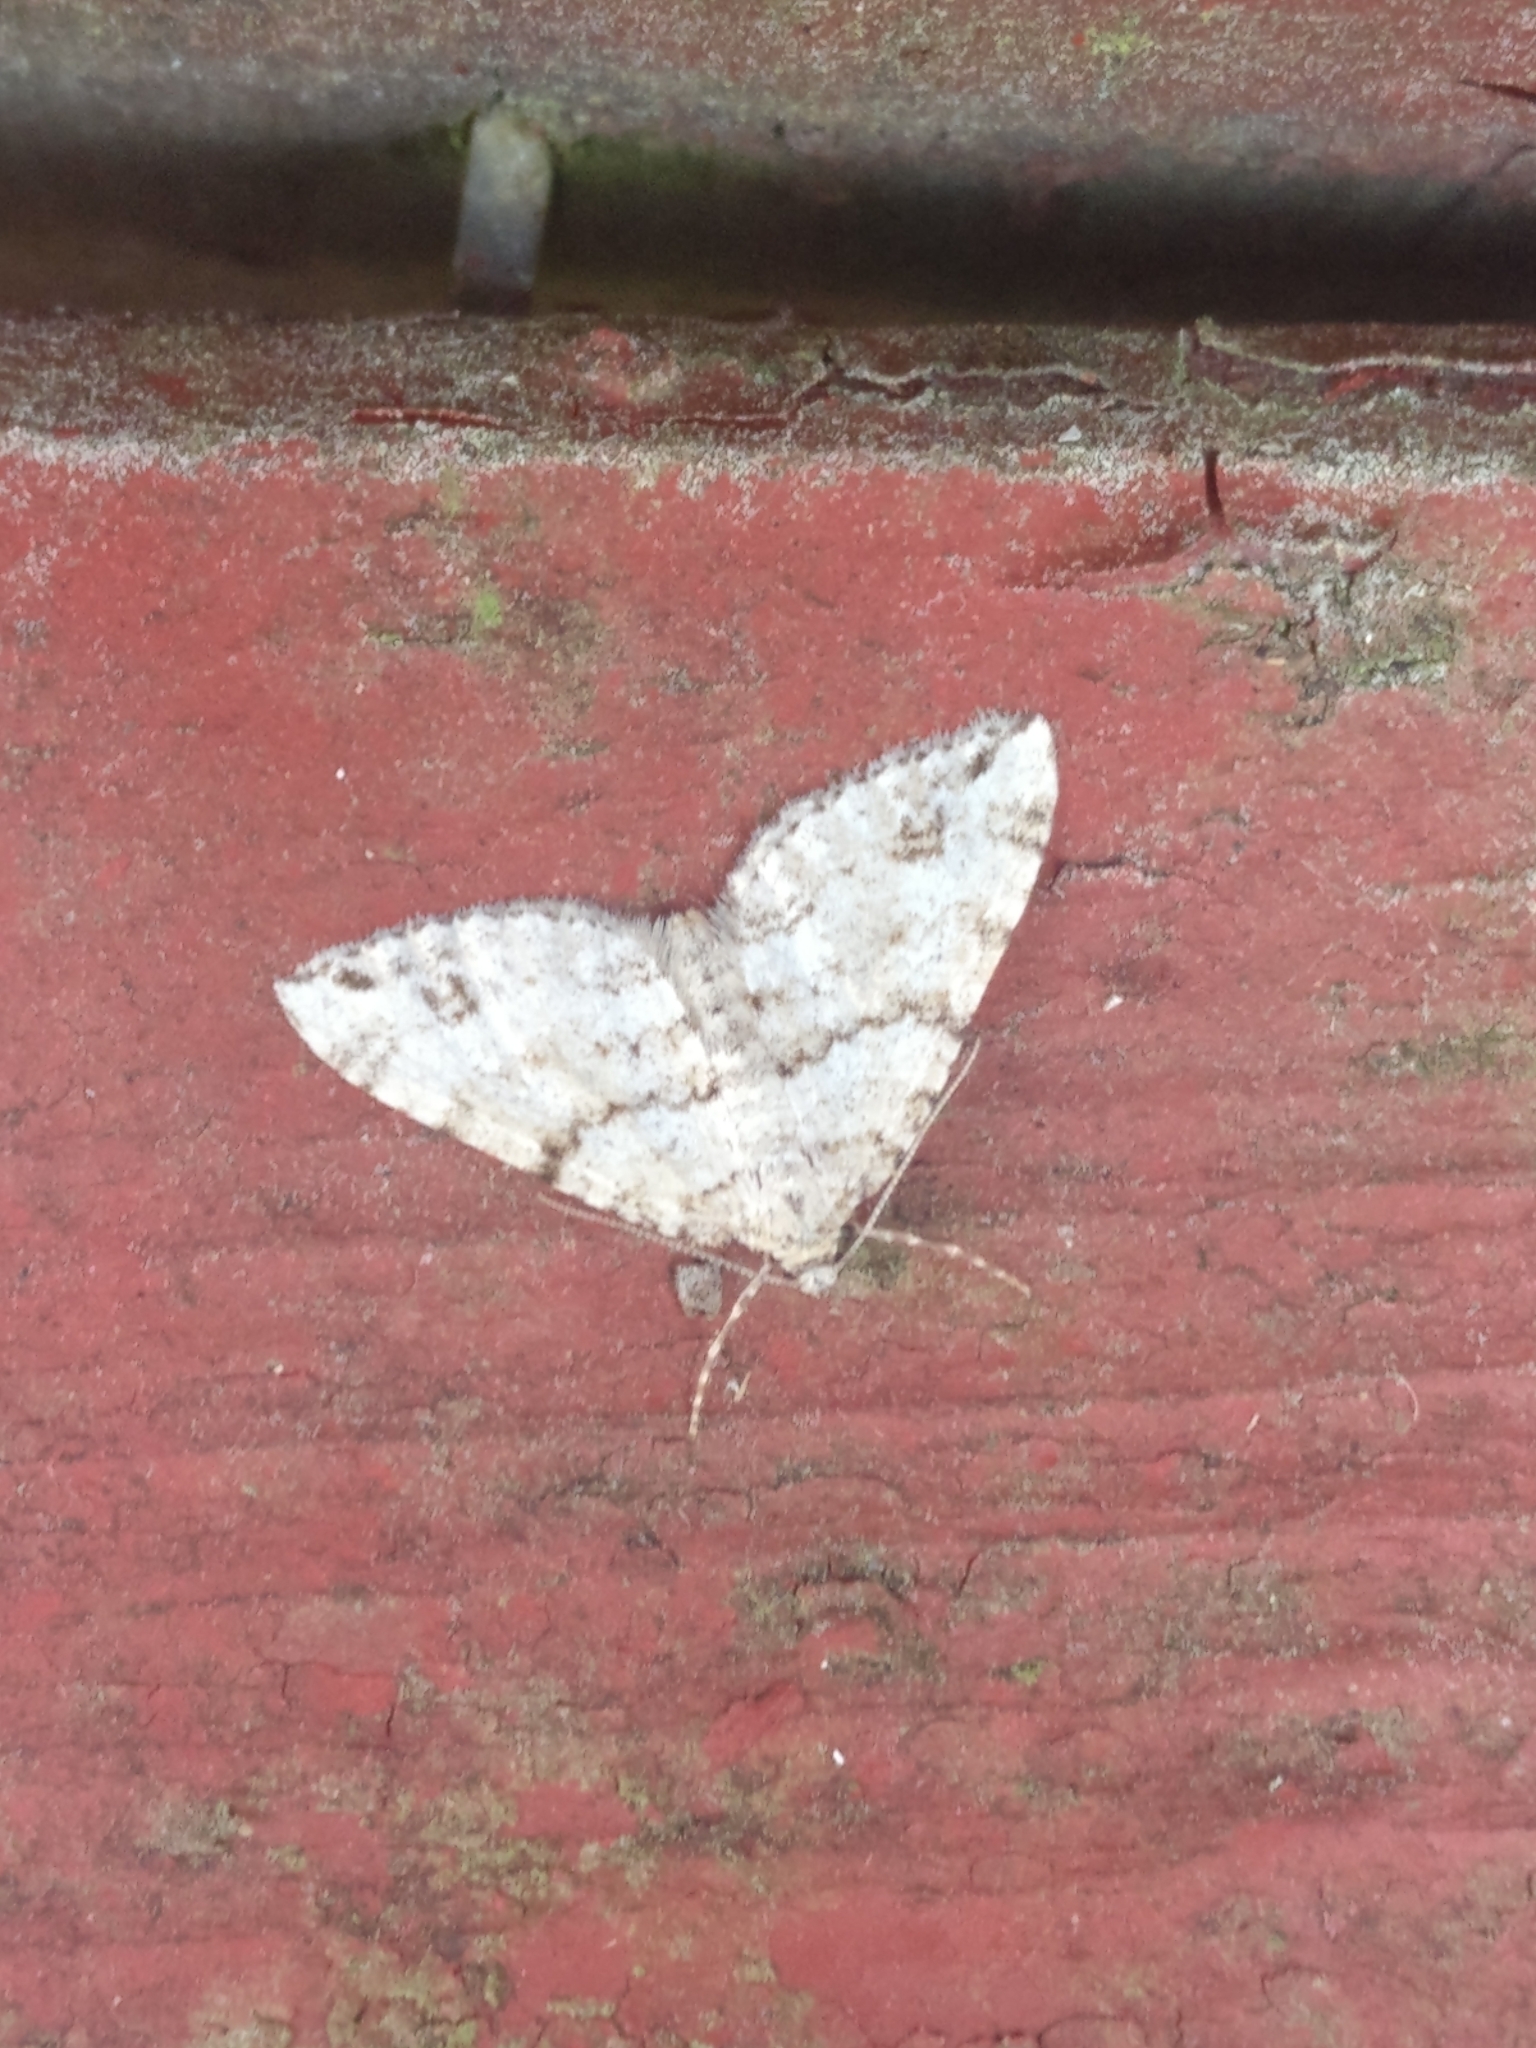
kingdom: Animalia
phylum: Arthropoda
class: Insecta
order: Lepidoptera
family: Geometridae
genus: Perizoma
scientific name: Perizoma didymata
